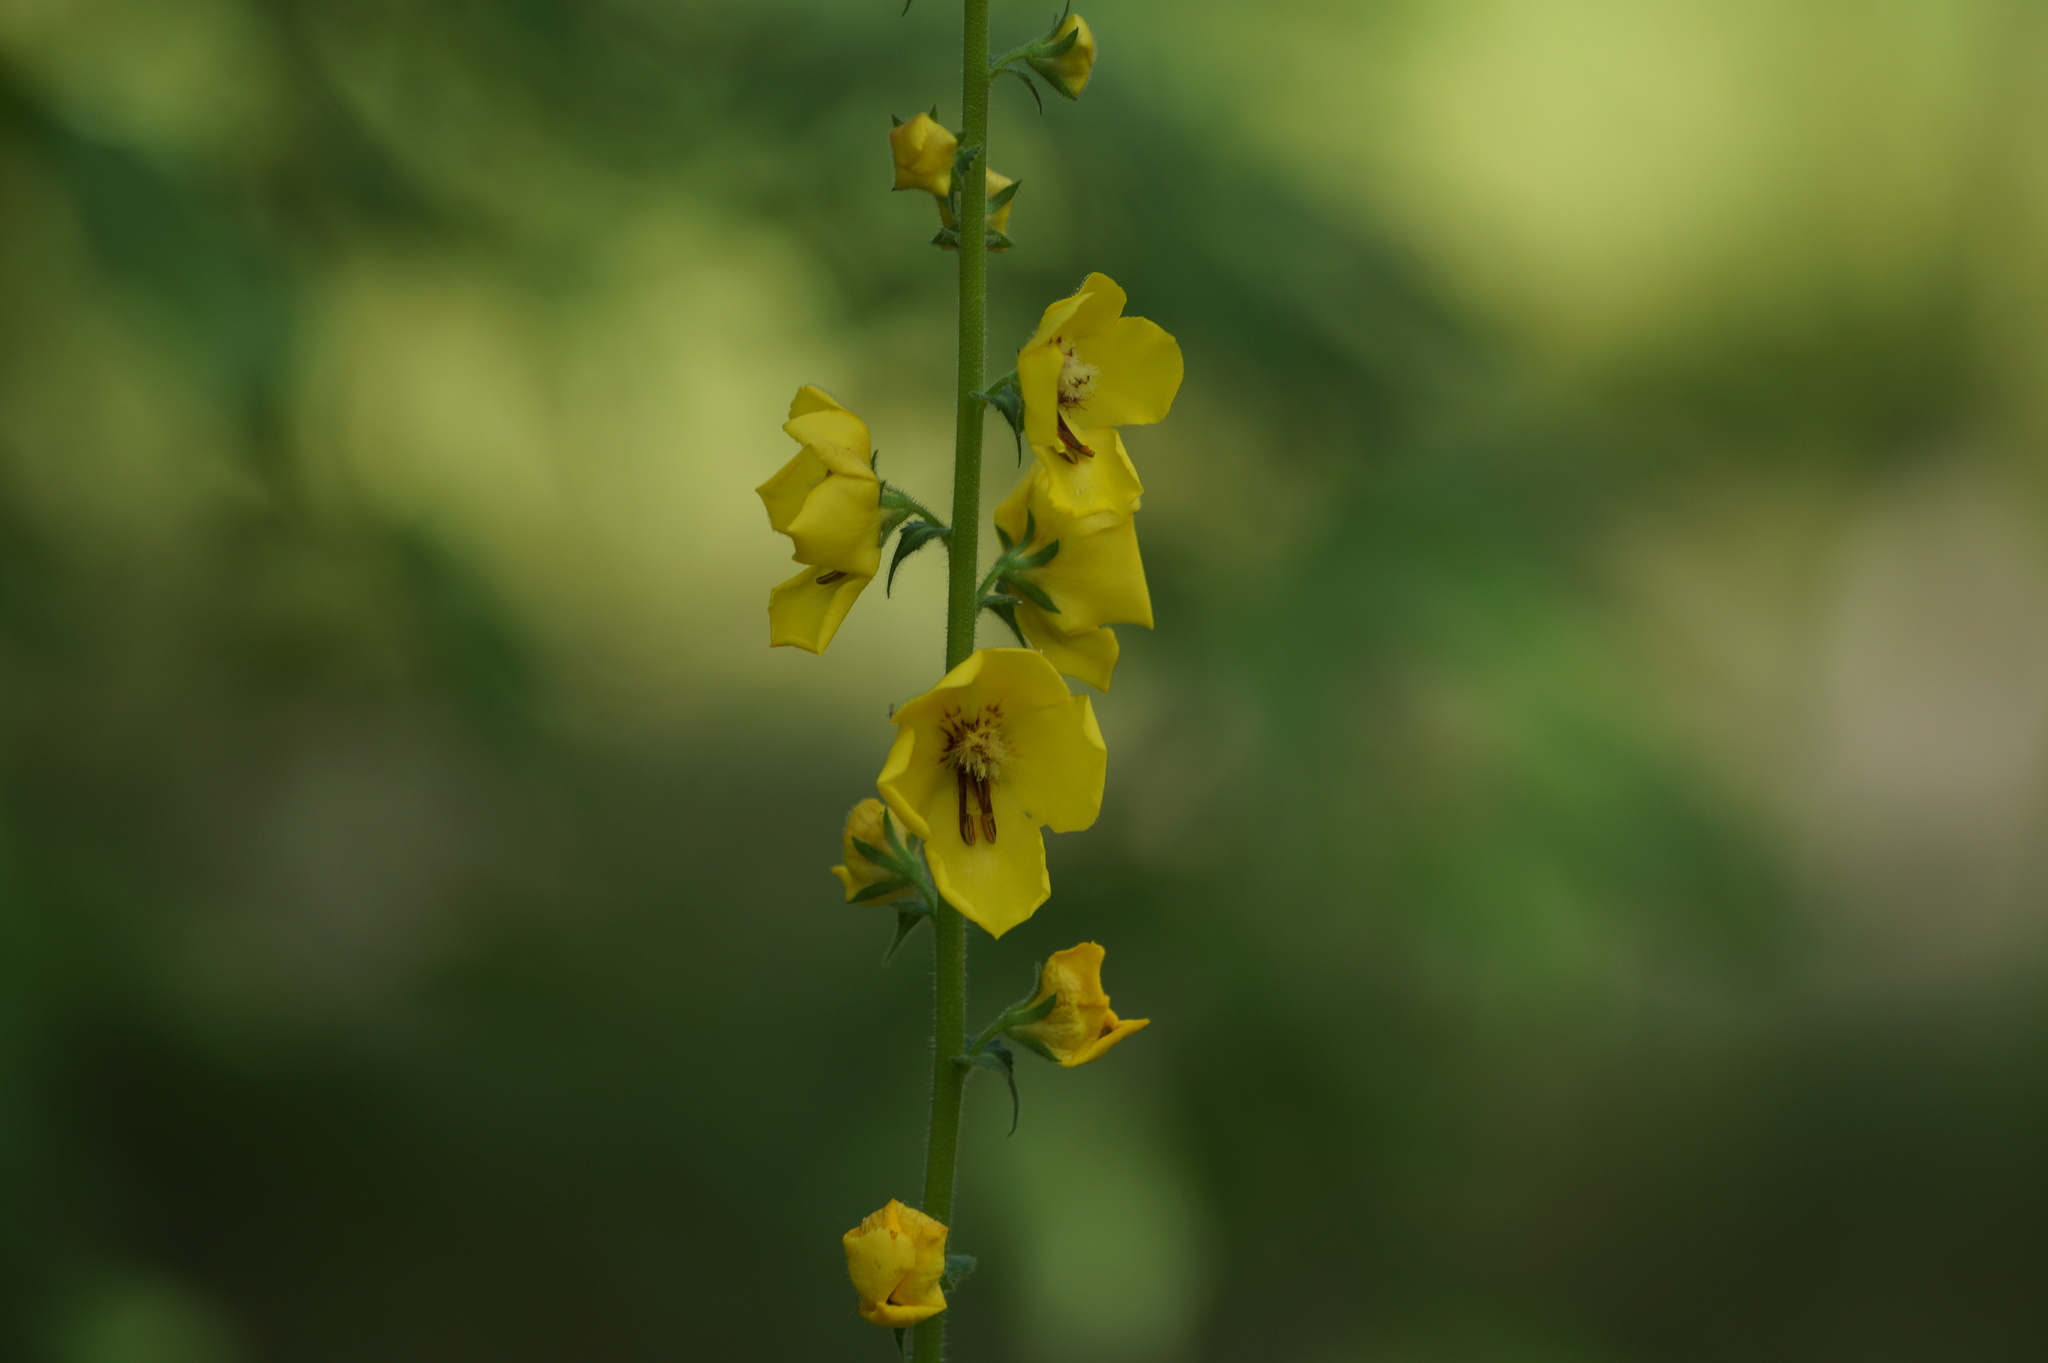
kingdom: Plantae
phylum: Tracheophyta
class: Magnoliopsida
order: Lamiales
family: Scrophulariaceae
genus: Verbascum
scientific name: Verbascum blattaria
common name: Moth mullein
